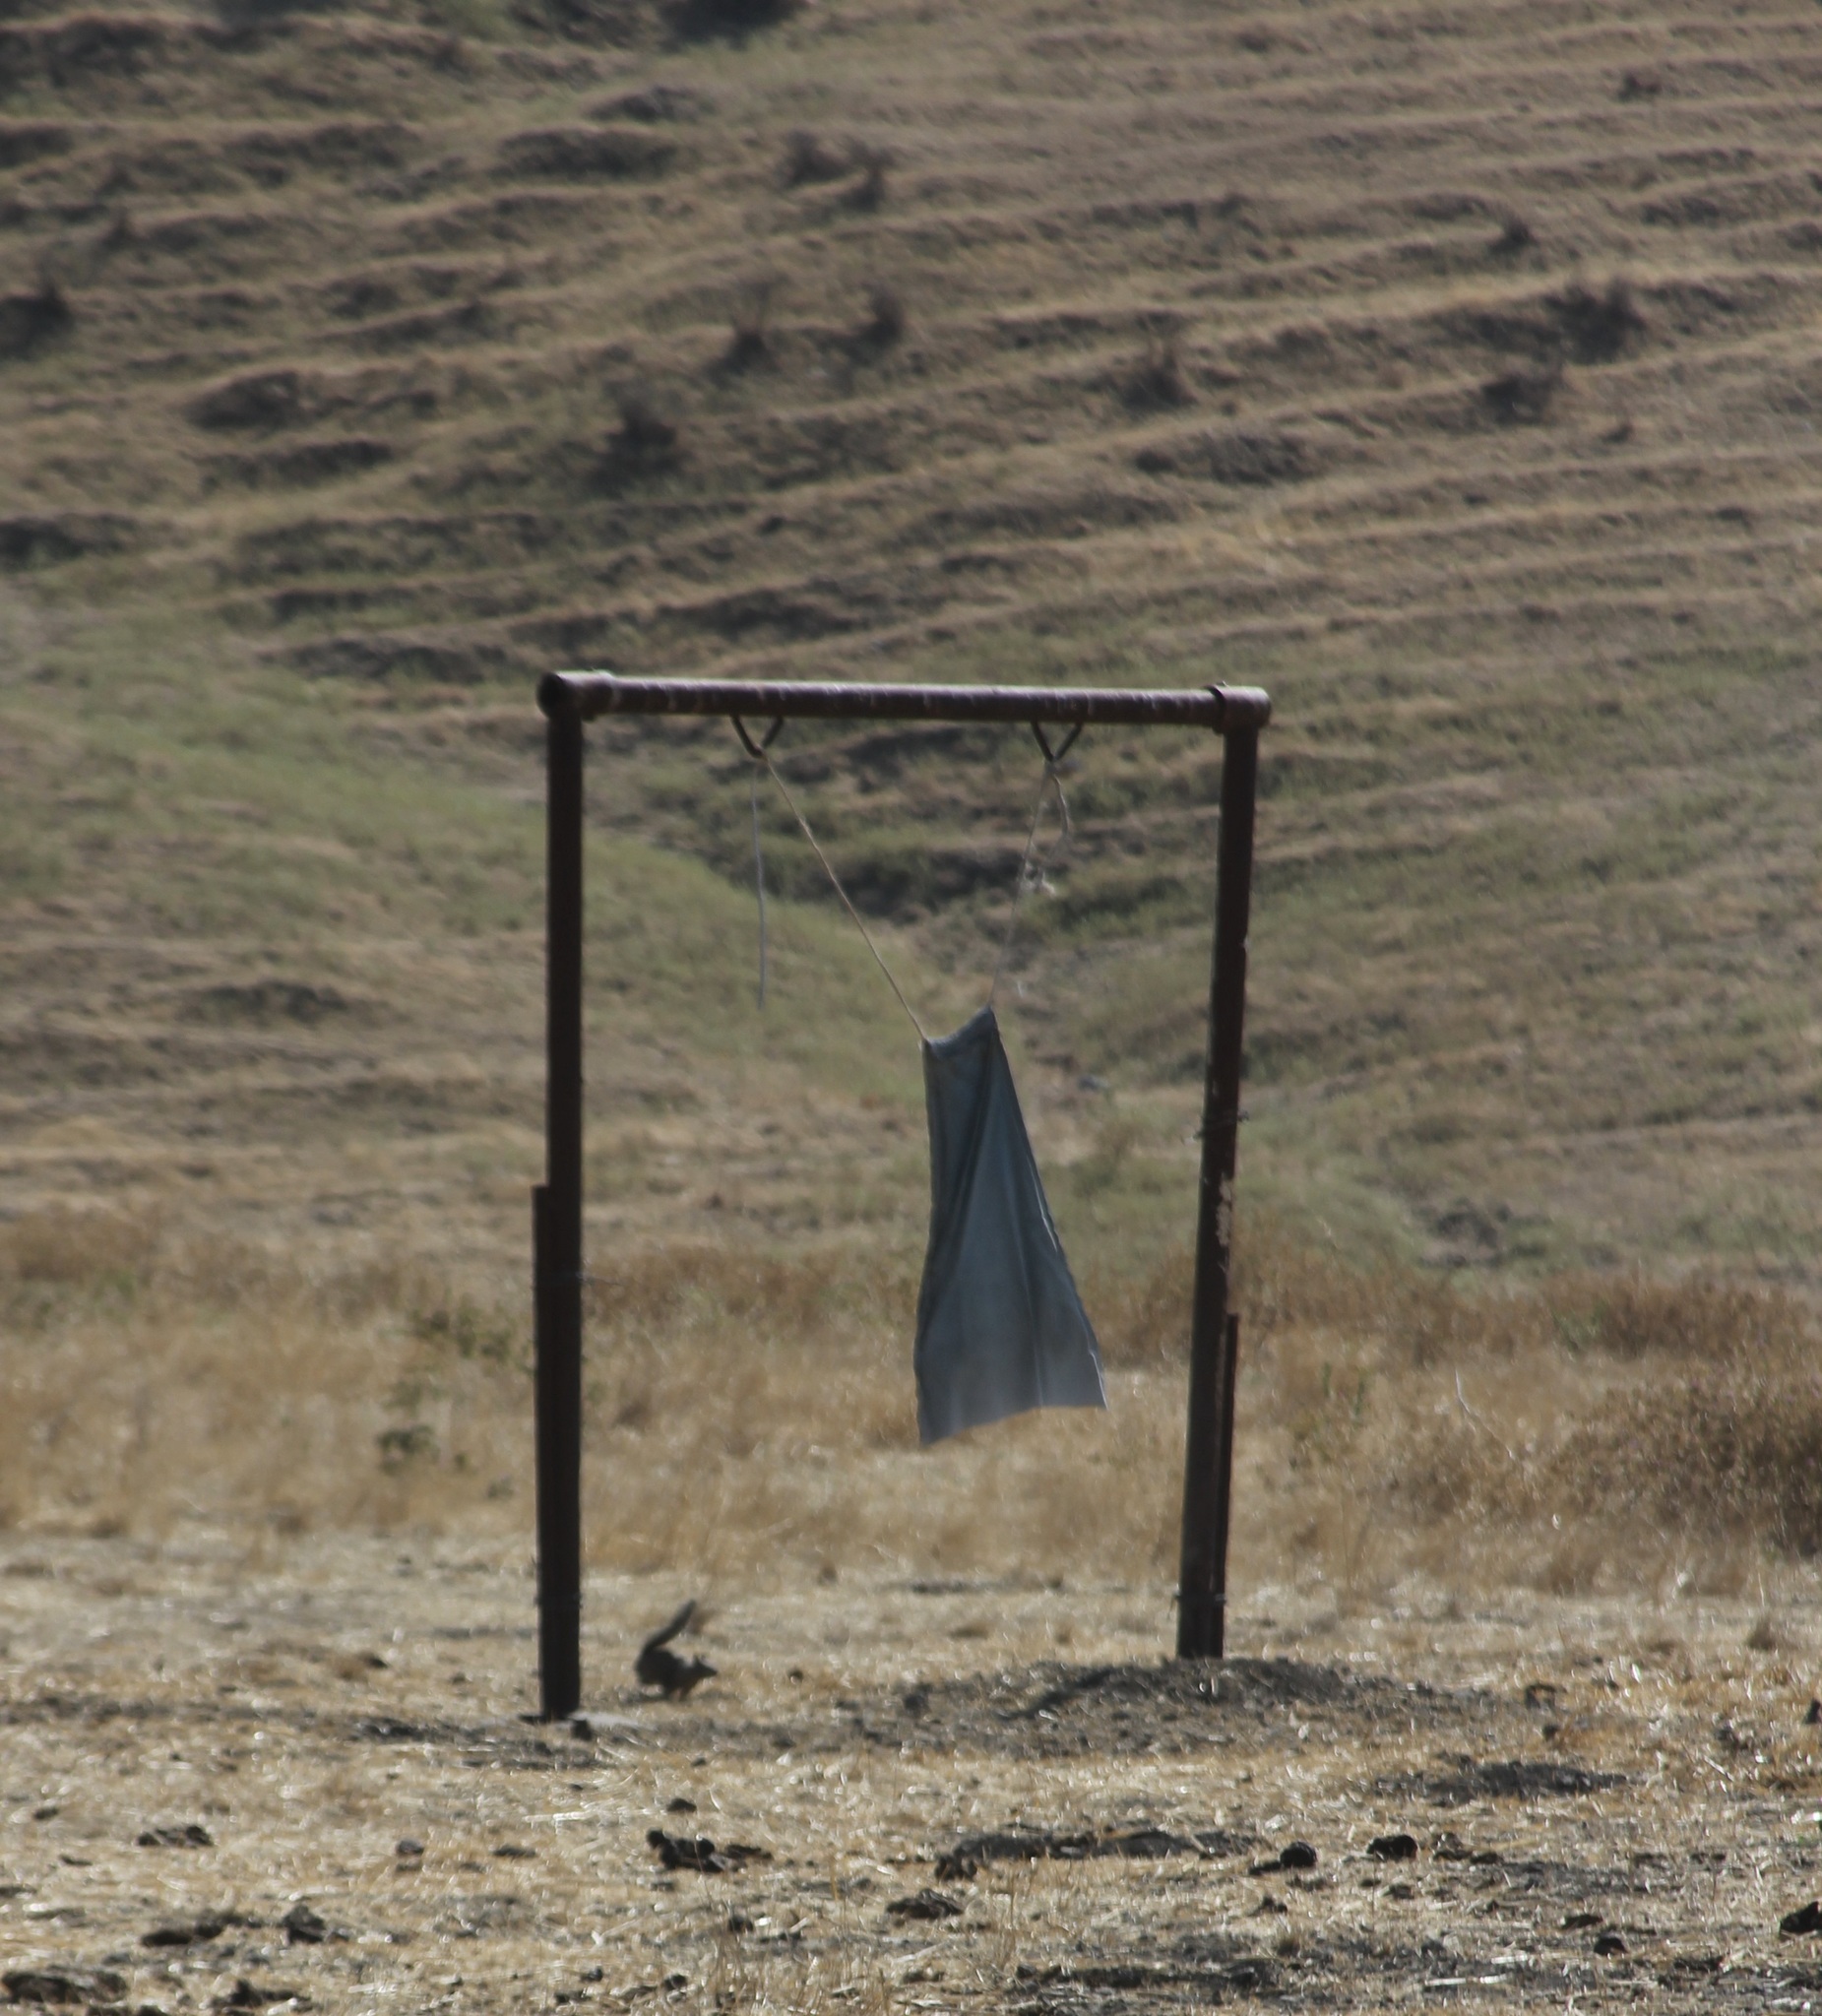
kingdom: Animalia
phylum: Chordata
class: Mammalia
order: Rodentia
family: Sciuridae
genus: Otospermophilus
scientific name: Otospermophilus beecheyi
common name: California ground squirrel
